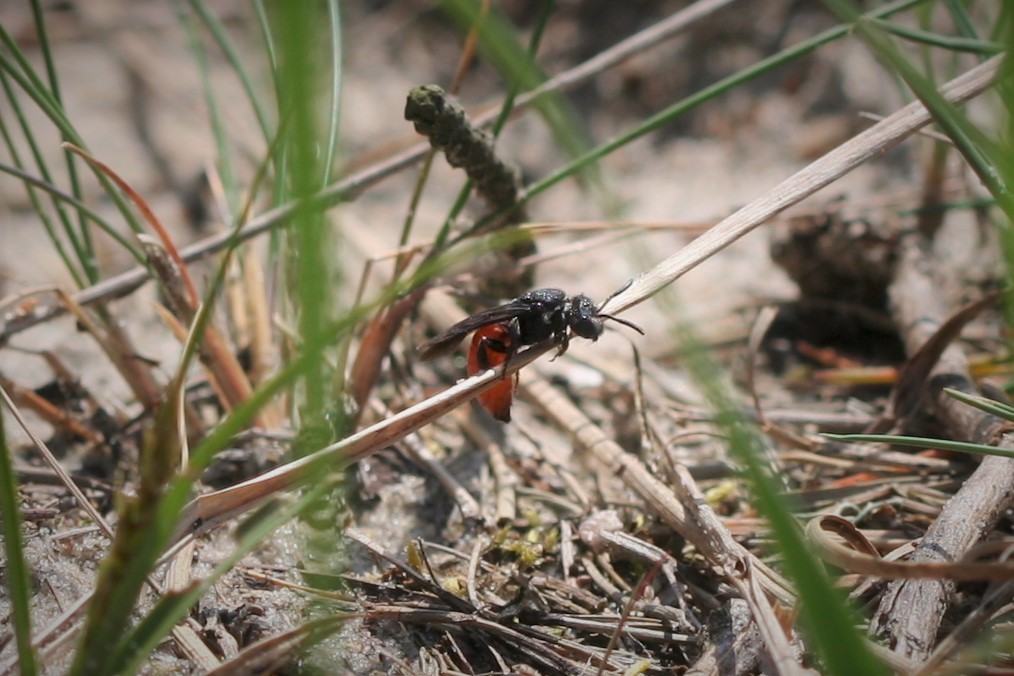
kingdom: Animalia
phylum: Arthropoda
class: Insecta
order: Hymenoptera
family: Halictidae
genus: Sphecodes
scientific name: Sphecodes albilabris
